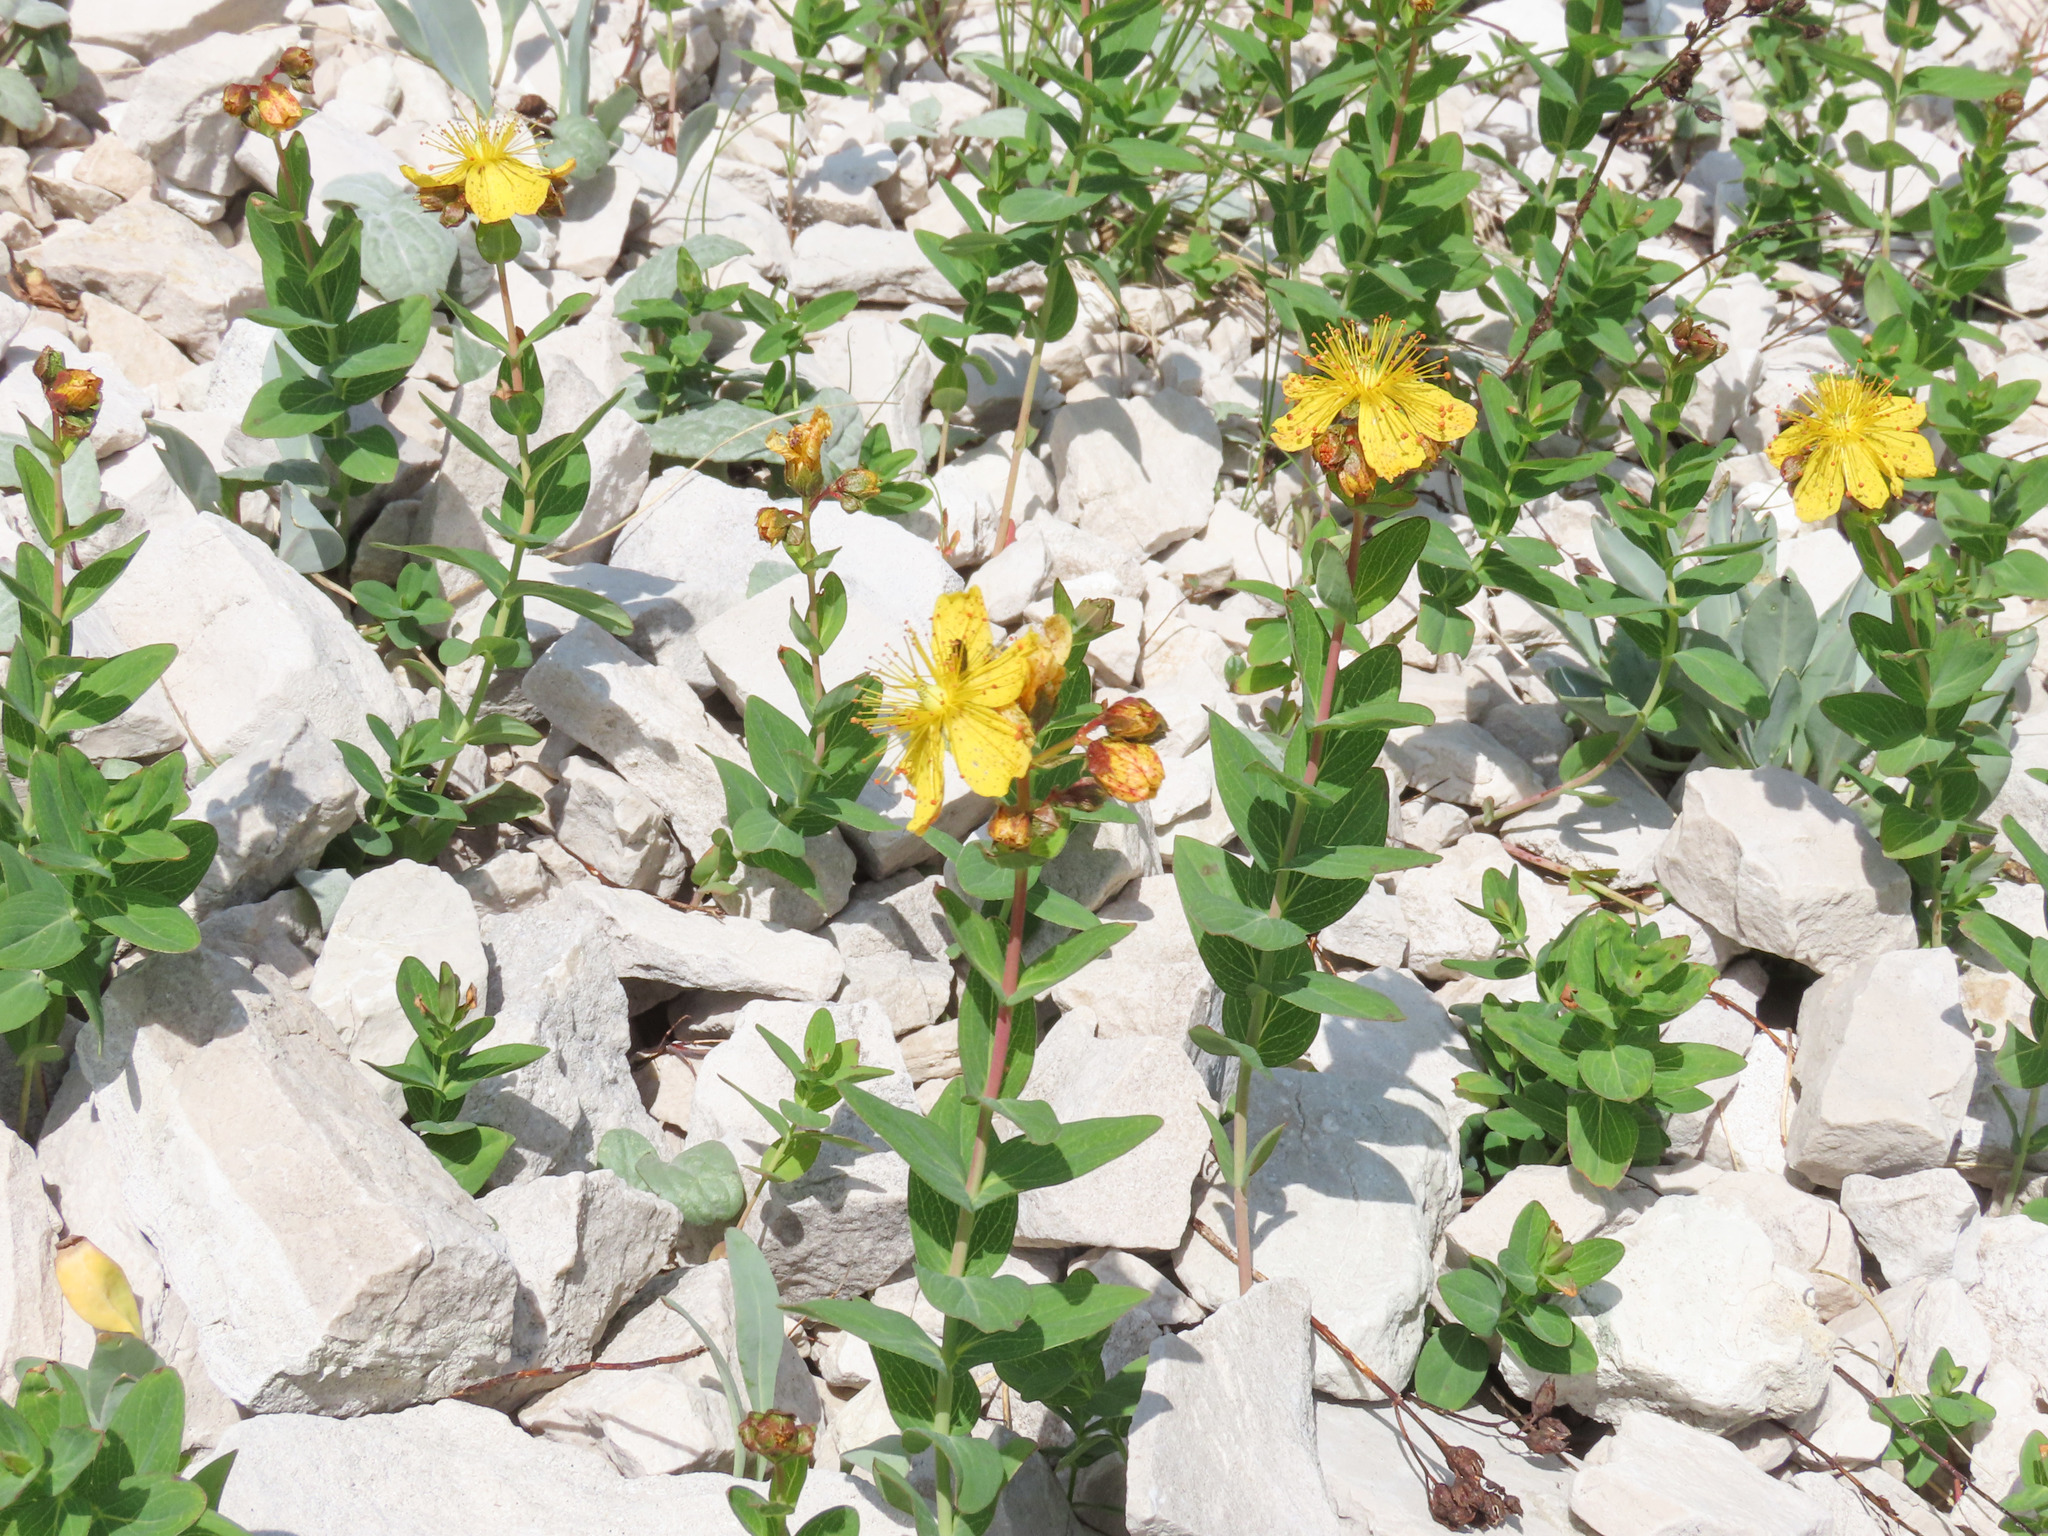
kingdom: Plantae
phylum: Tracheophyta
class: Magnoliopsida
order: Malpighiales
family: Hypericaceae
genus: Hypericum
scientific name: Hypericum richeri
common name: Alpine st john's-wort
